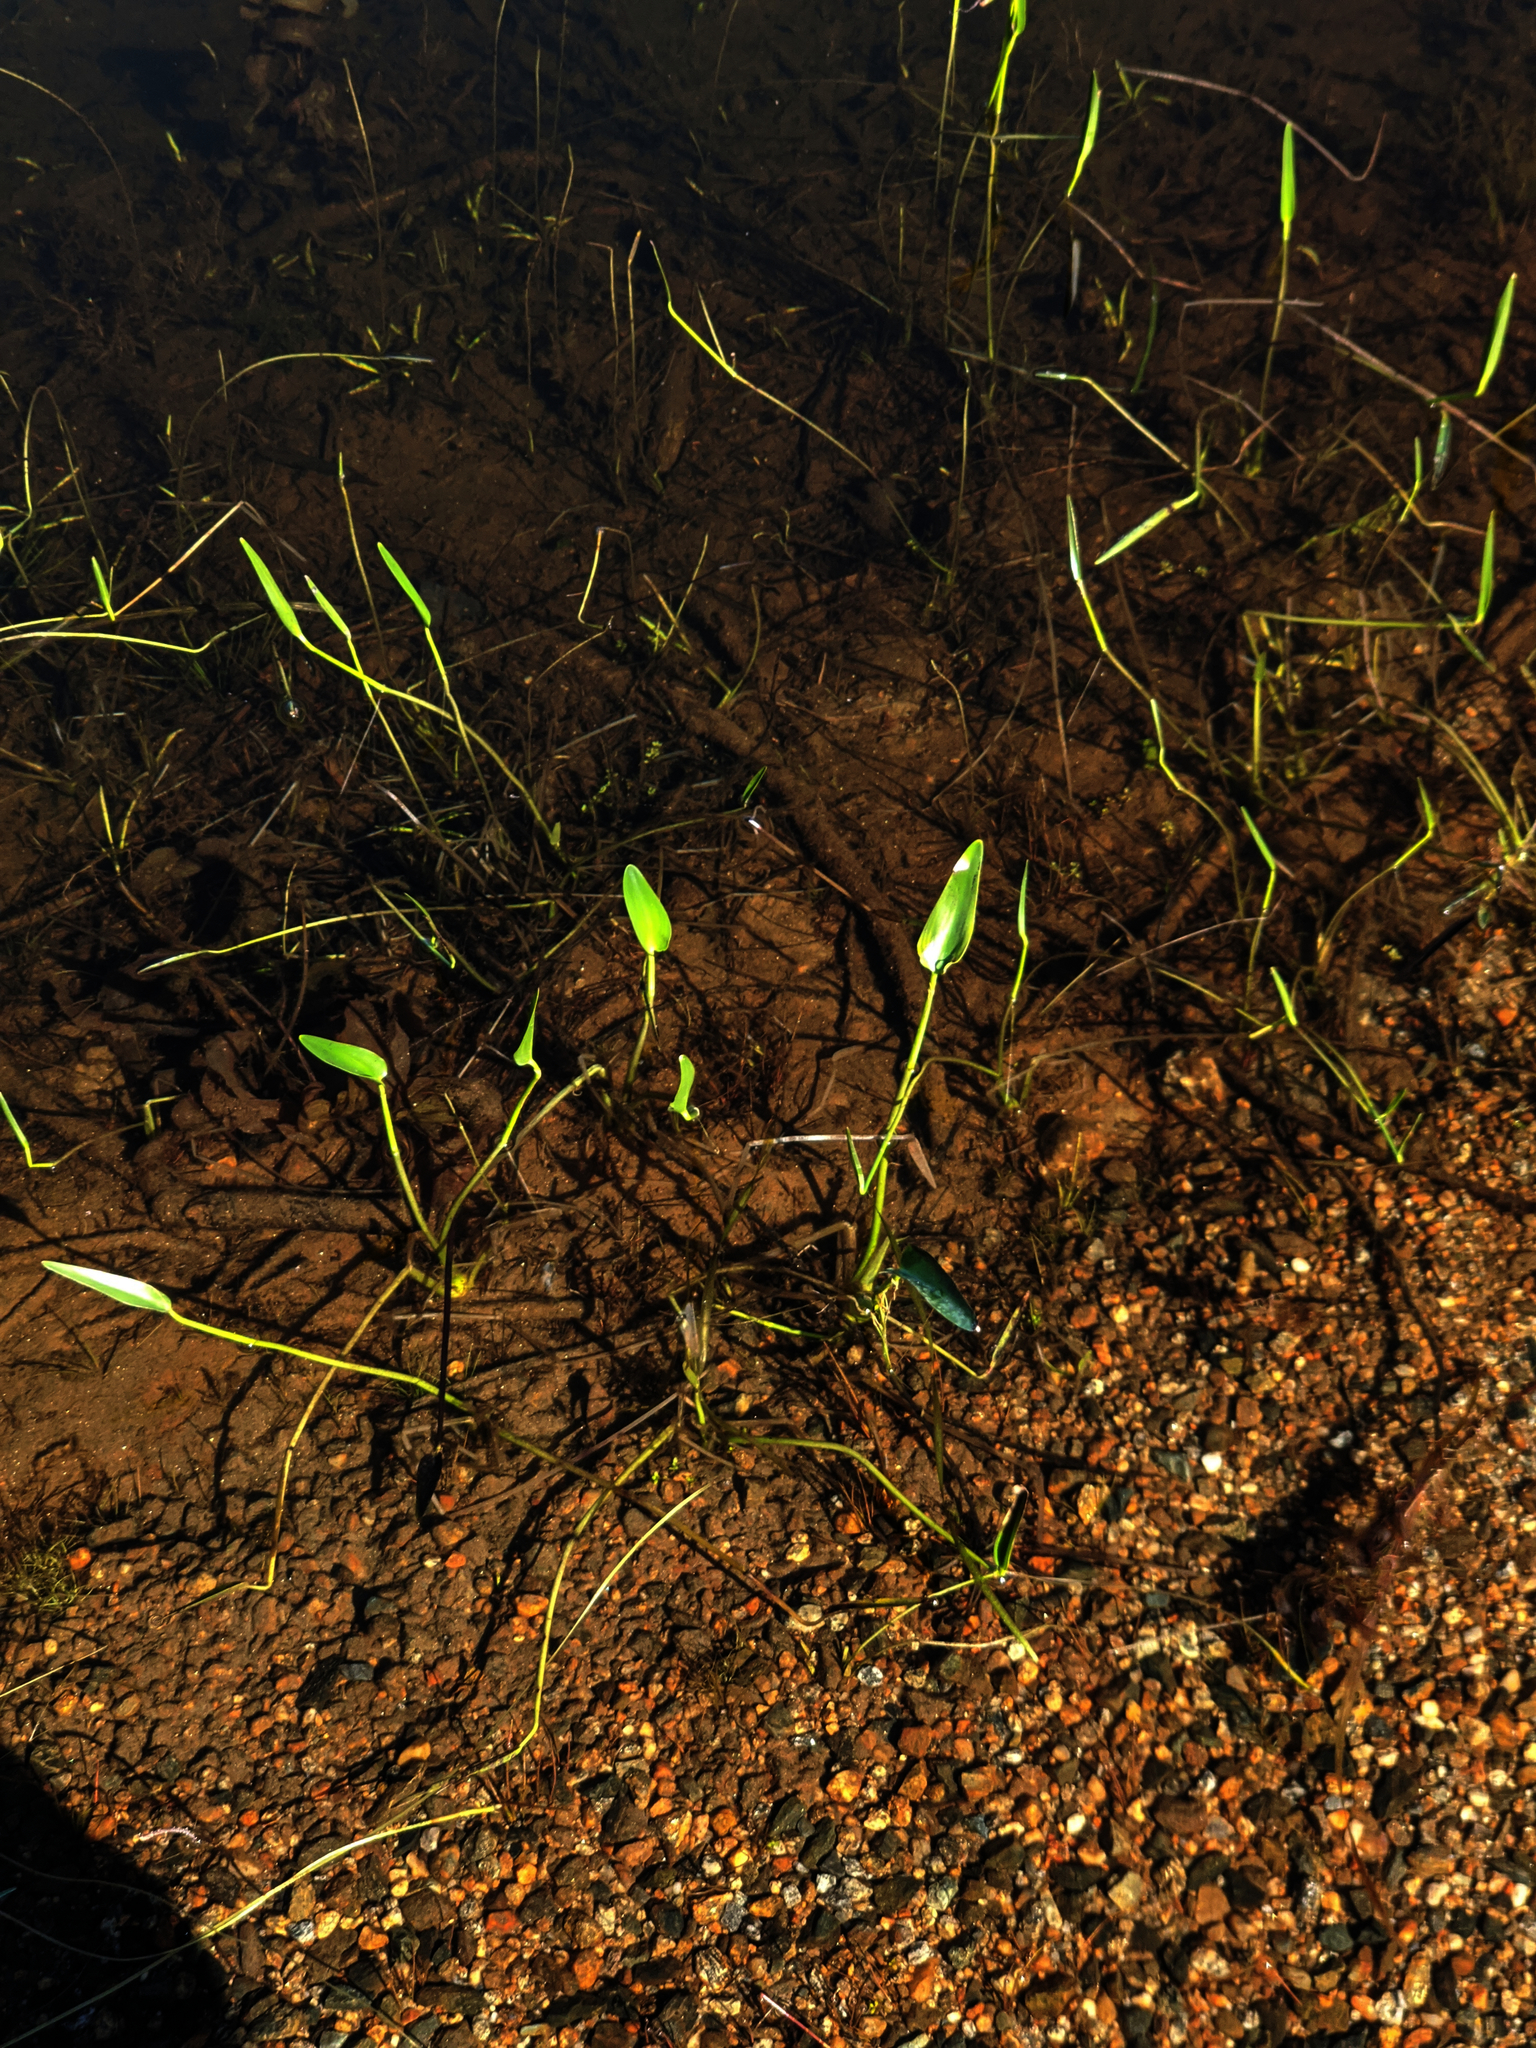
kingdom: Plantae
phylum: Tracheophyta
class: Liliopsida
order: Commelinales
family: Pontederiaceae
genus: Pontederia
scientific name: Pontederia cordata
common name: Pickerelweed
